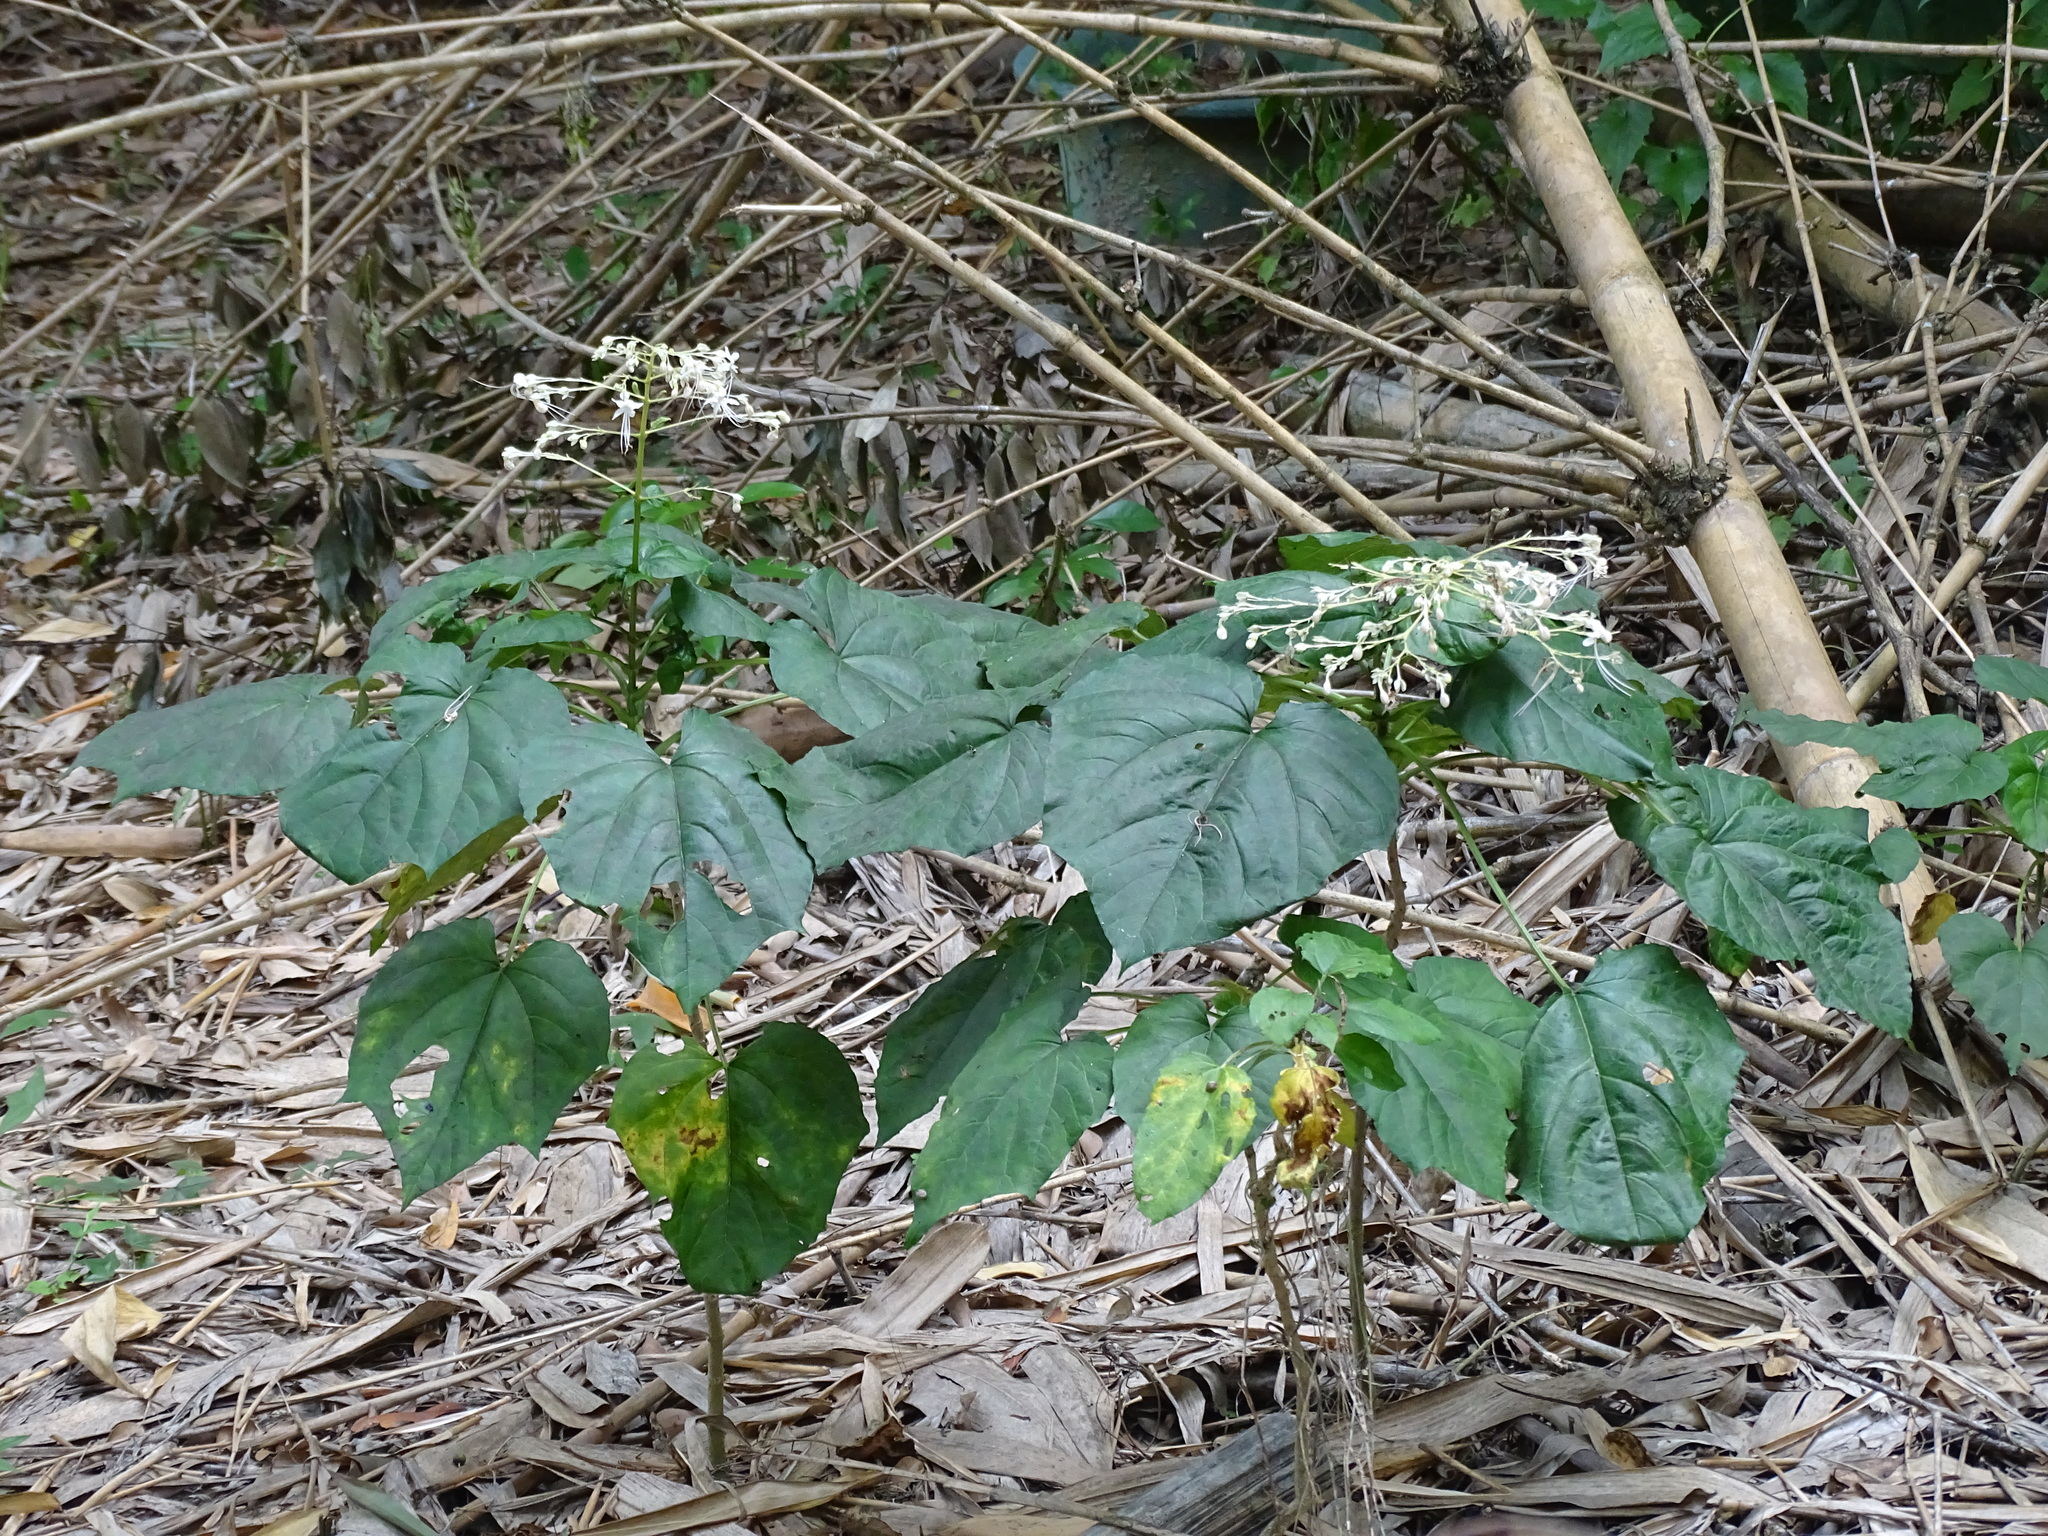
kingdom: Plantae
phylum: Tracheophyta
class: Magnoliopsida
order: Lamiales
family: Lamiaceae
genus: Clerodendrum
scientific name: Clerodendrum japonicum
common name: Japanese glorybower
